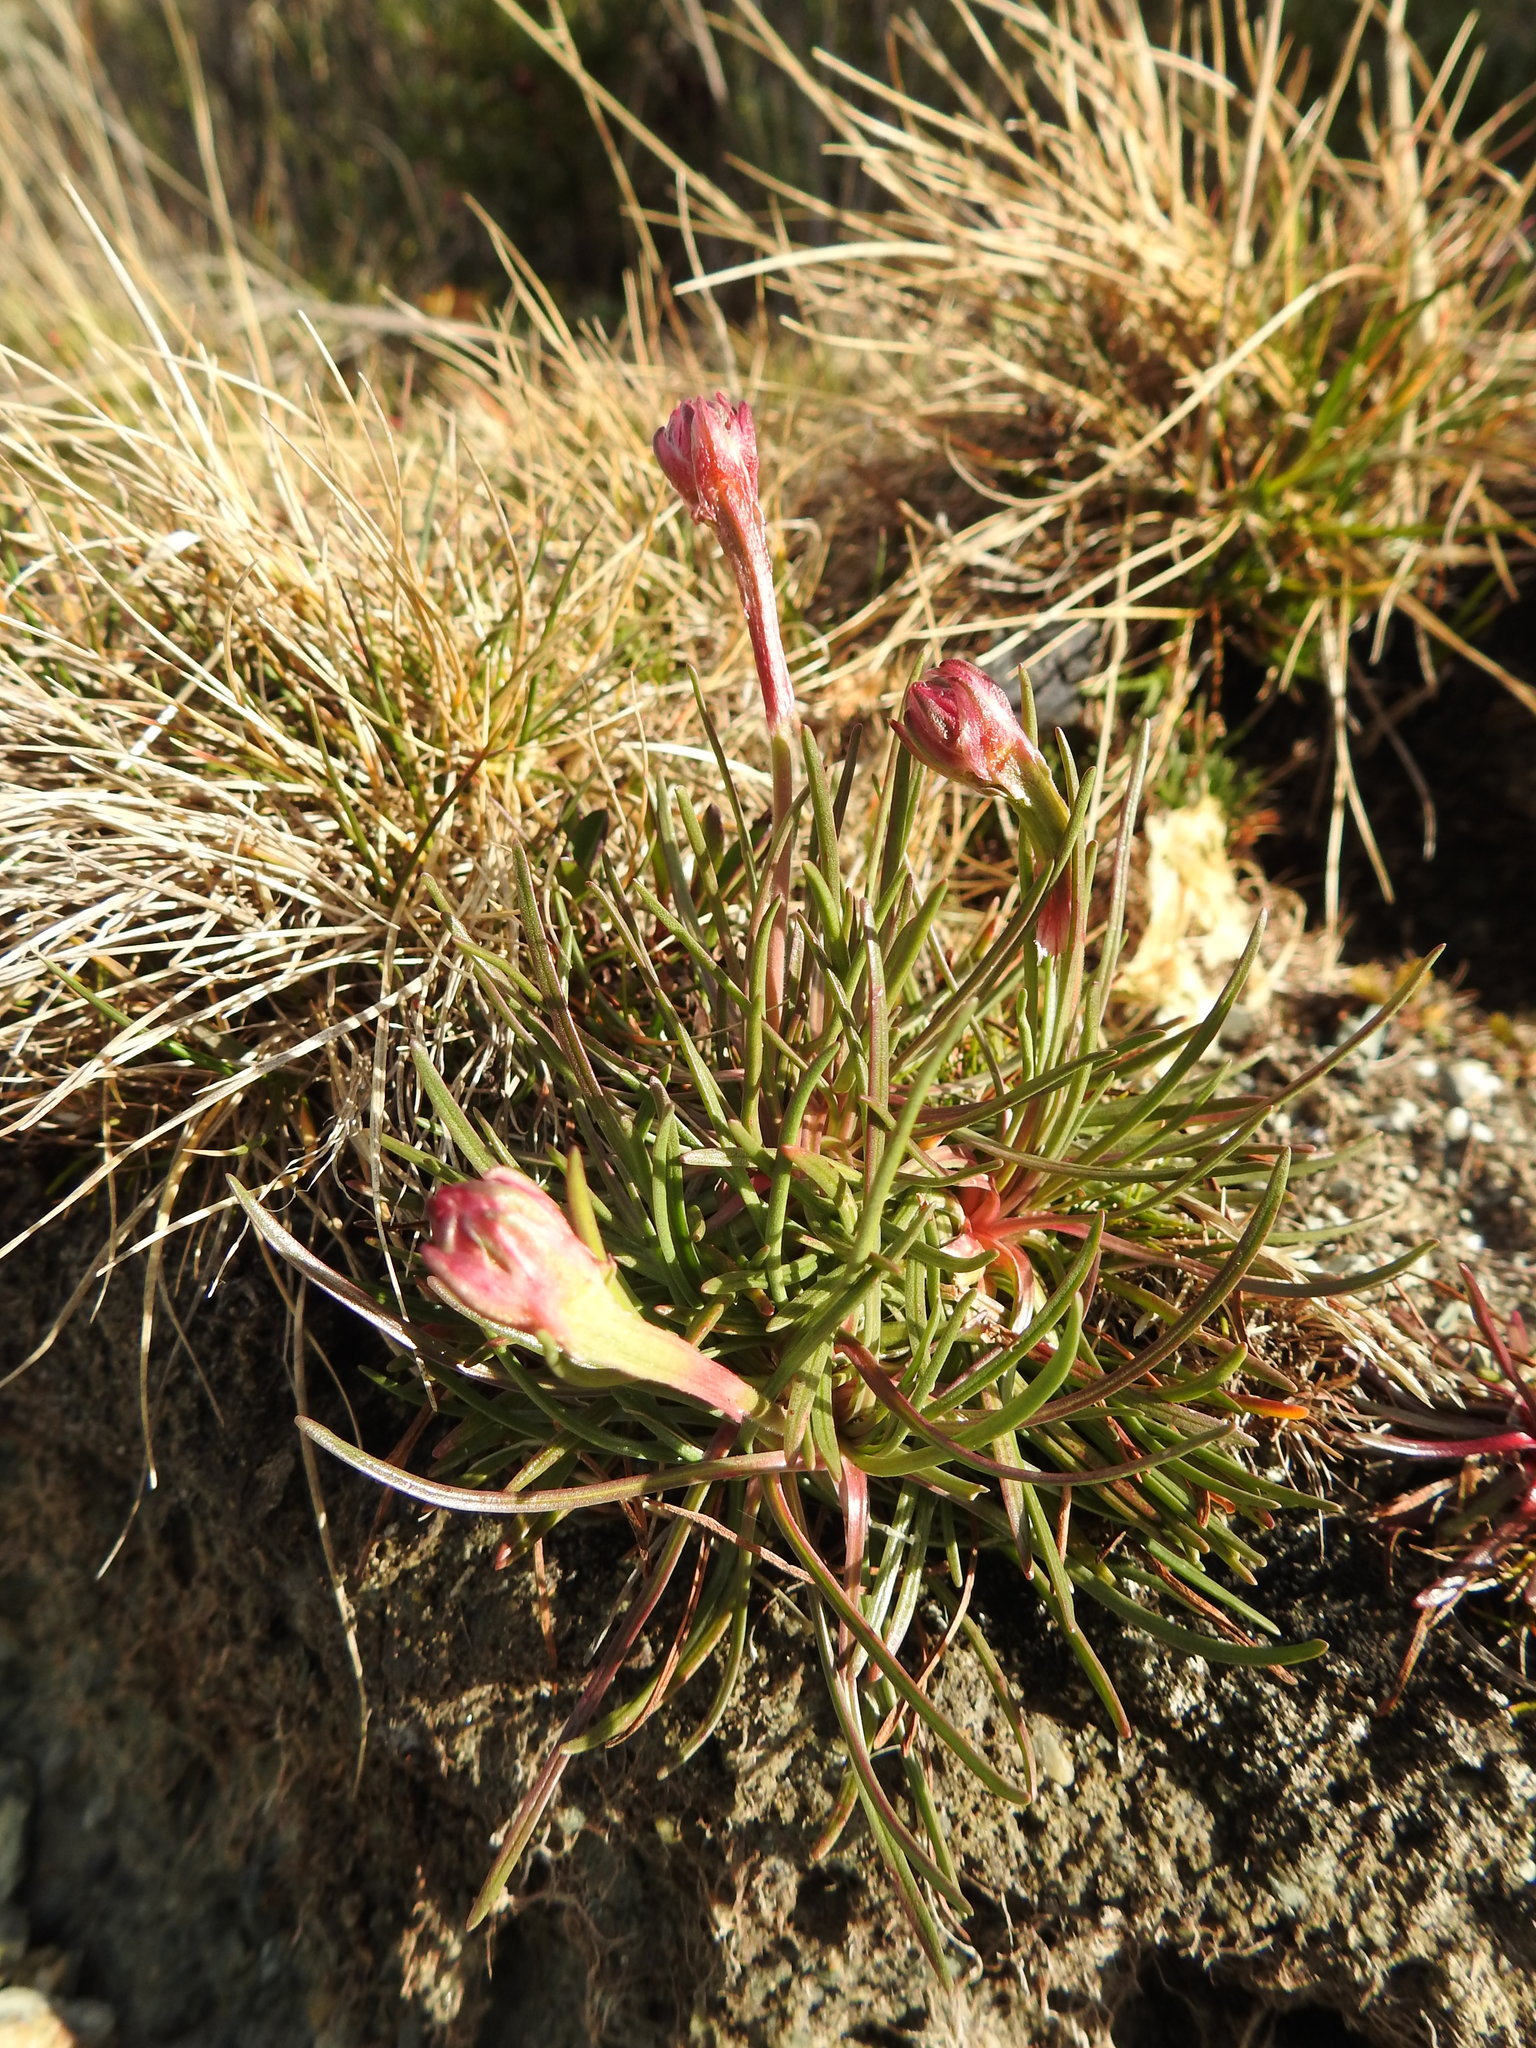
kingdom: Plantae
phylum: Tracheophyta
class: Magnoliopsida
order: Caryophyllales
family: Plumbaginaceae
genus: Armeria
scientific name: Armeria curvifolia
